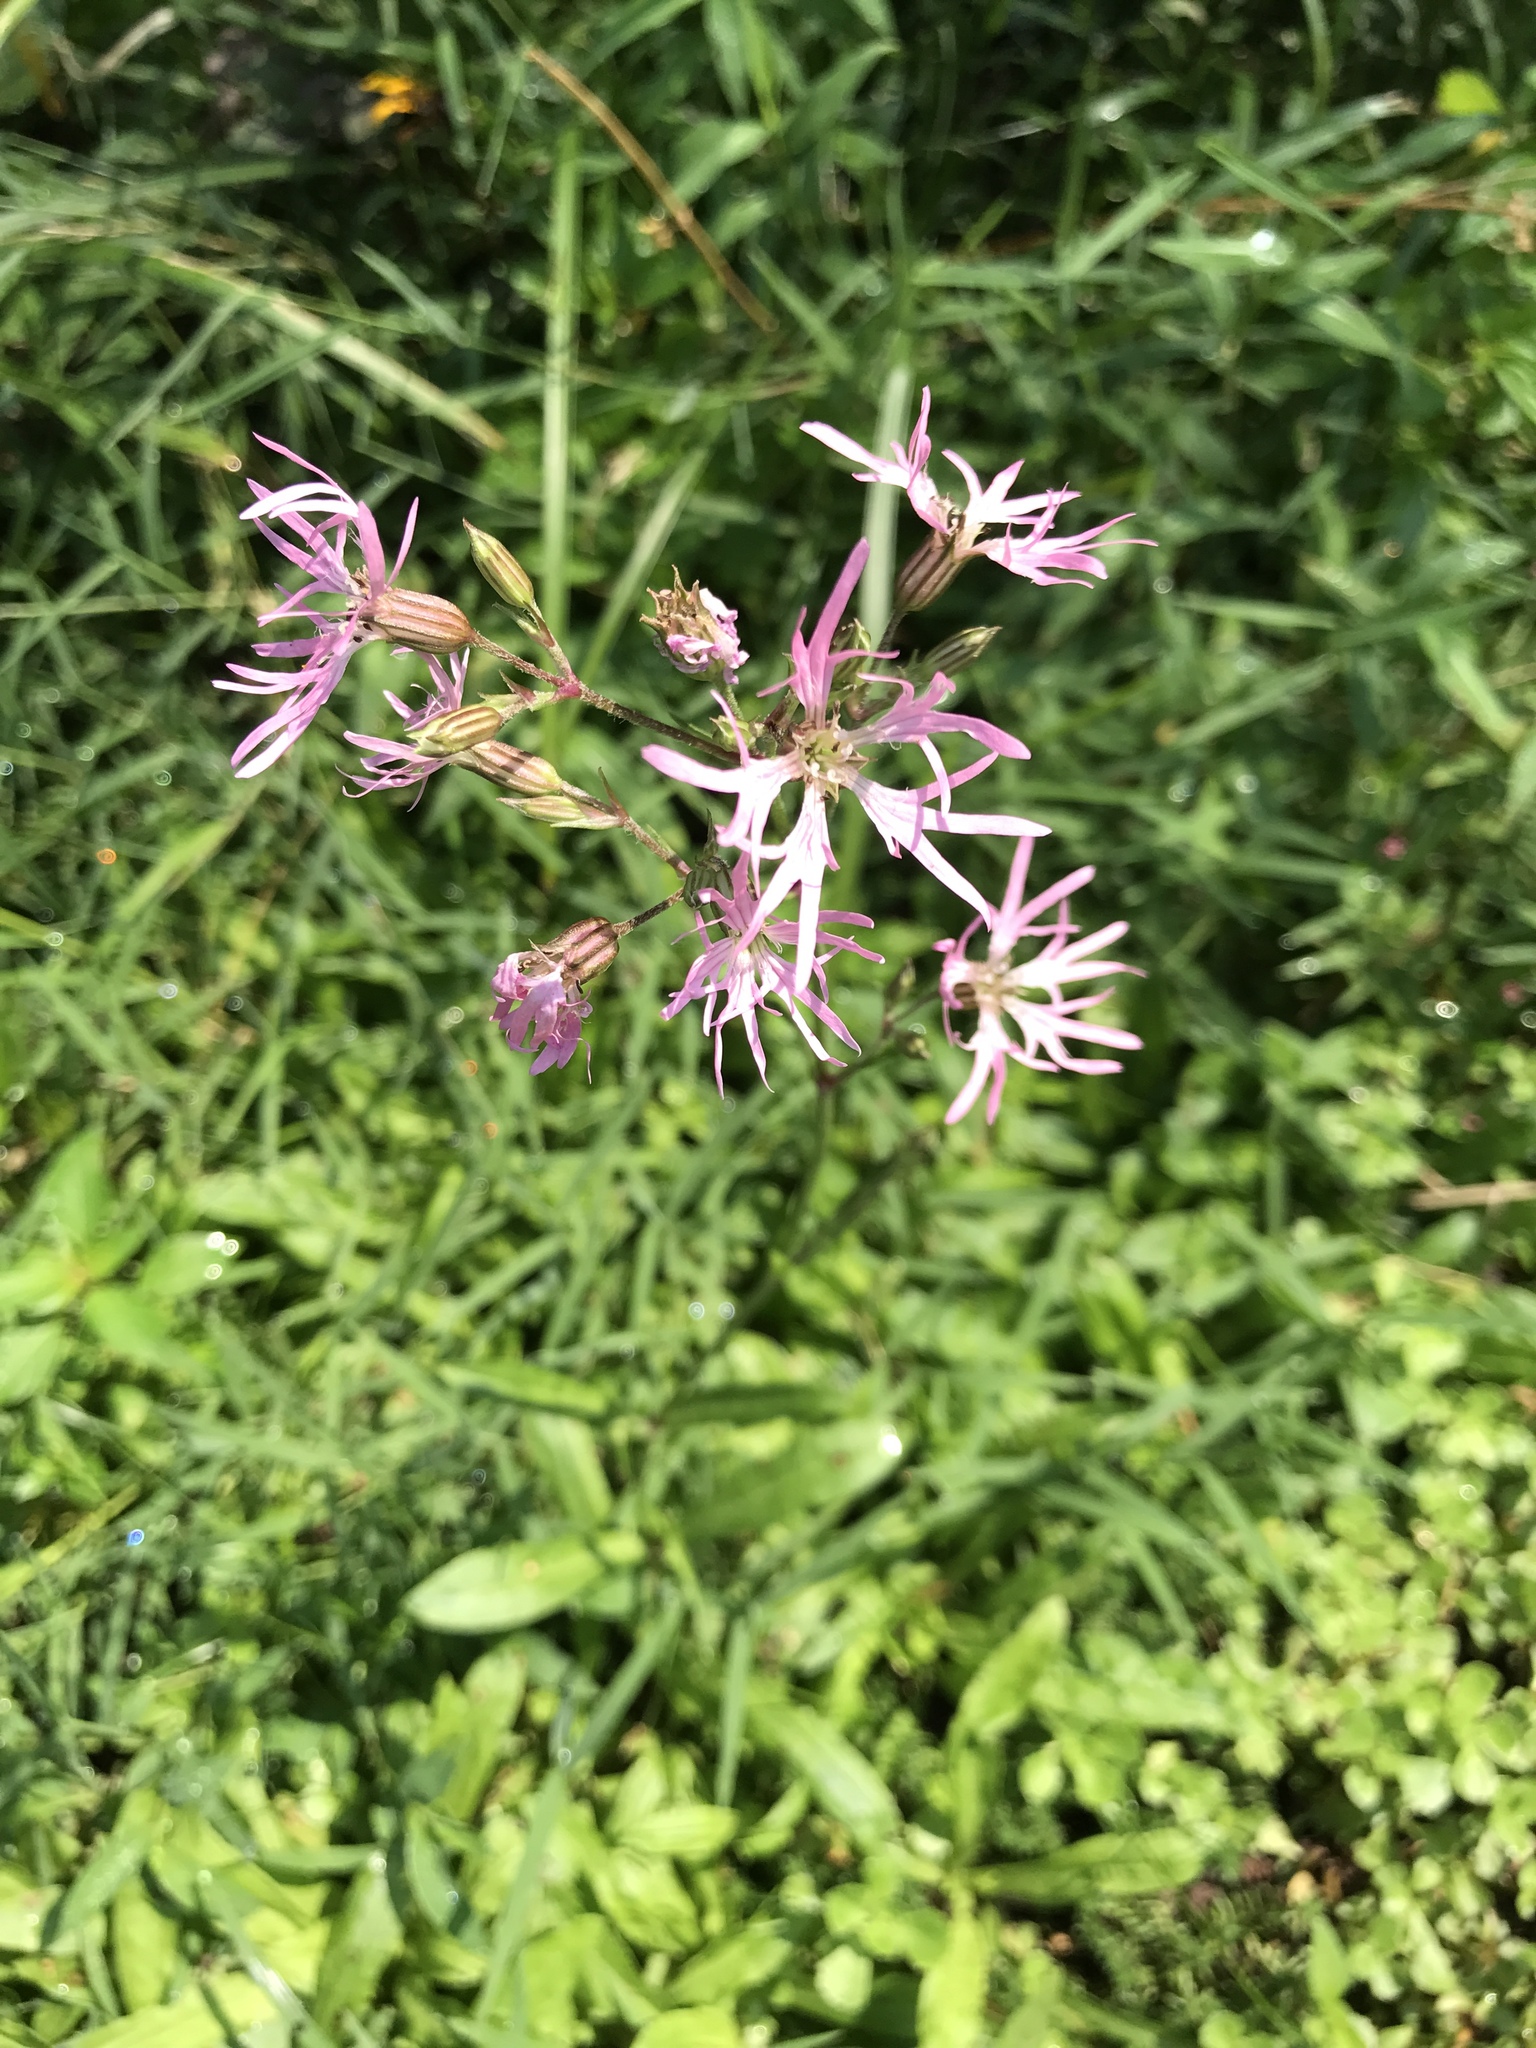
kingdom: Plantae
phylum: Tracheophyta
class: Magnoliopsida
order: Caryophyllales
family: Caryophyllaceae
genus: Silene
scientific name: Silene flos-cuculi
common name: Ragged-robin
